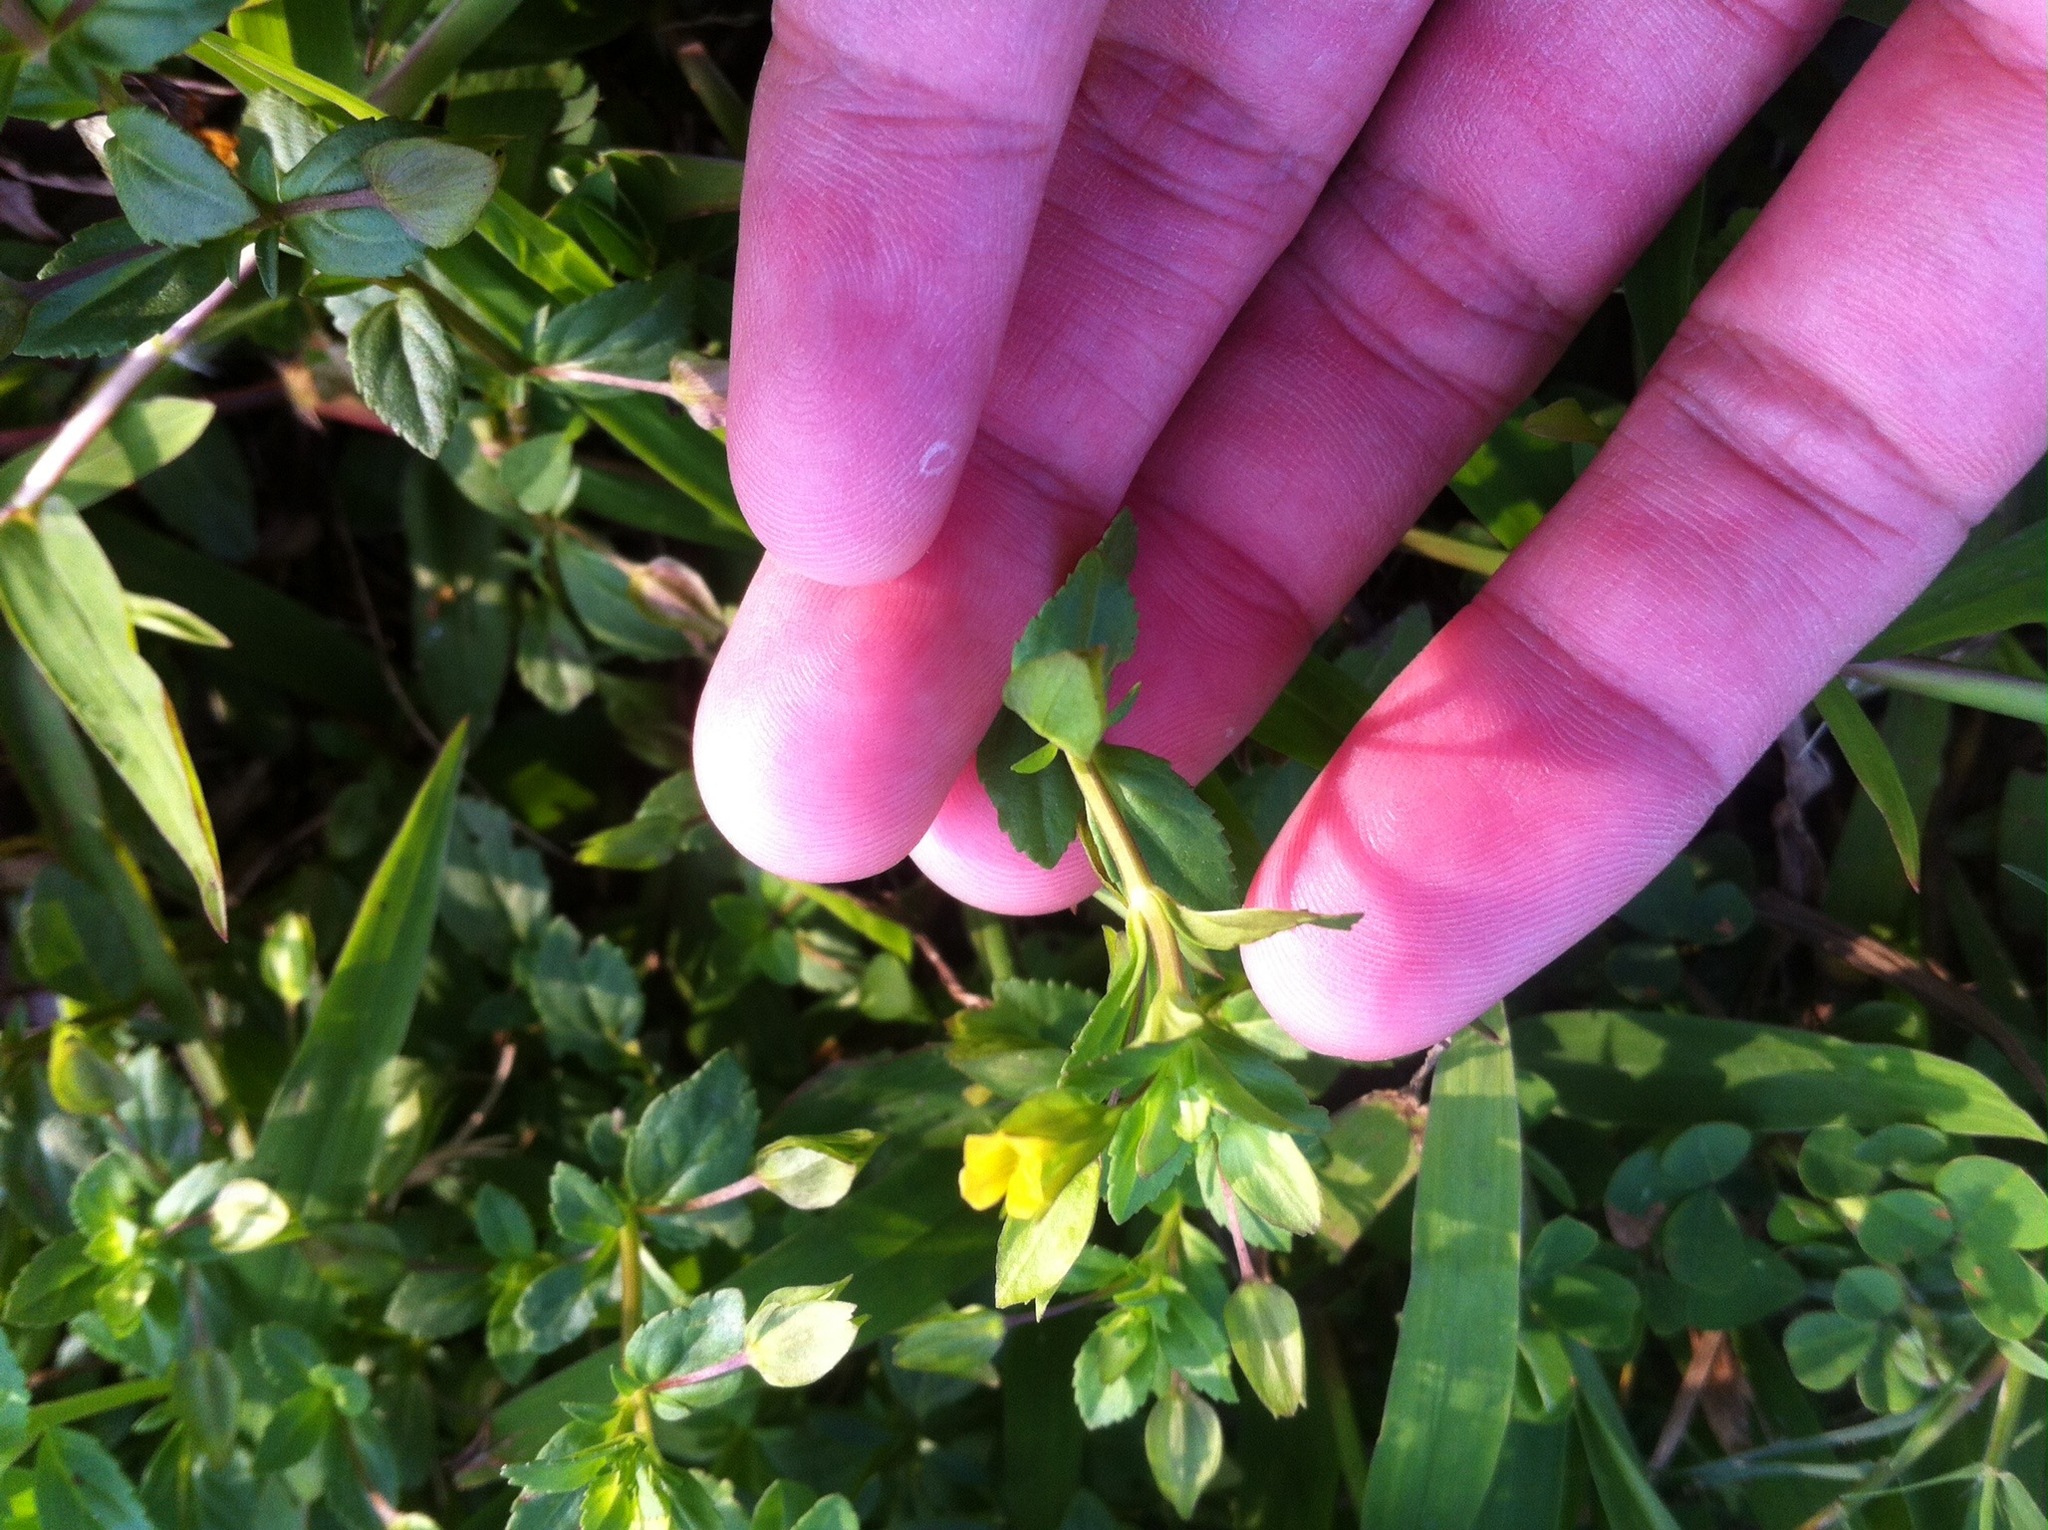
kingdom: Plantae
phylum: Tracheophyta
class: Magnoliopsida
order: Lamiales
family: Plantaginaceae
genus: Mecardonia
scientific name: Mecardonia procumbens
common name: Baby jump-up
